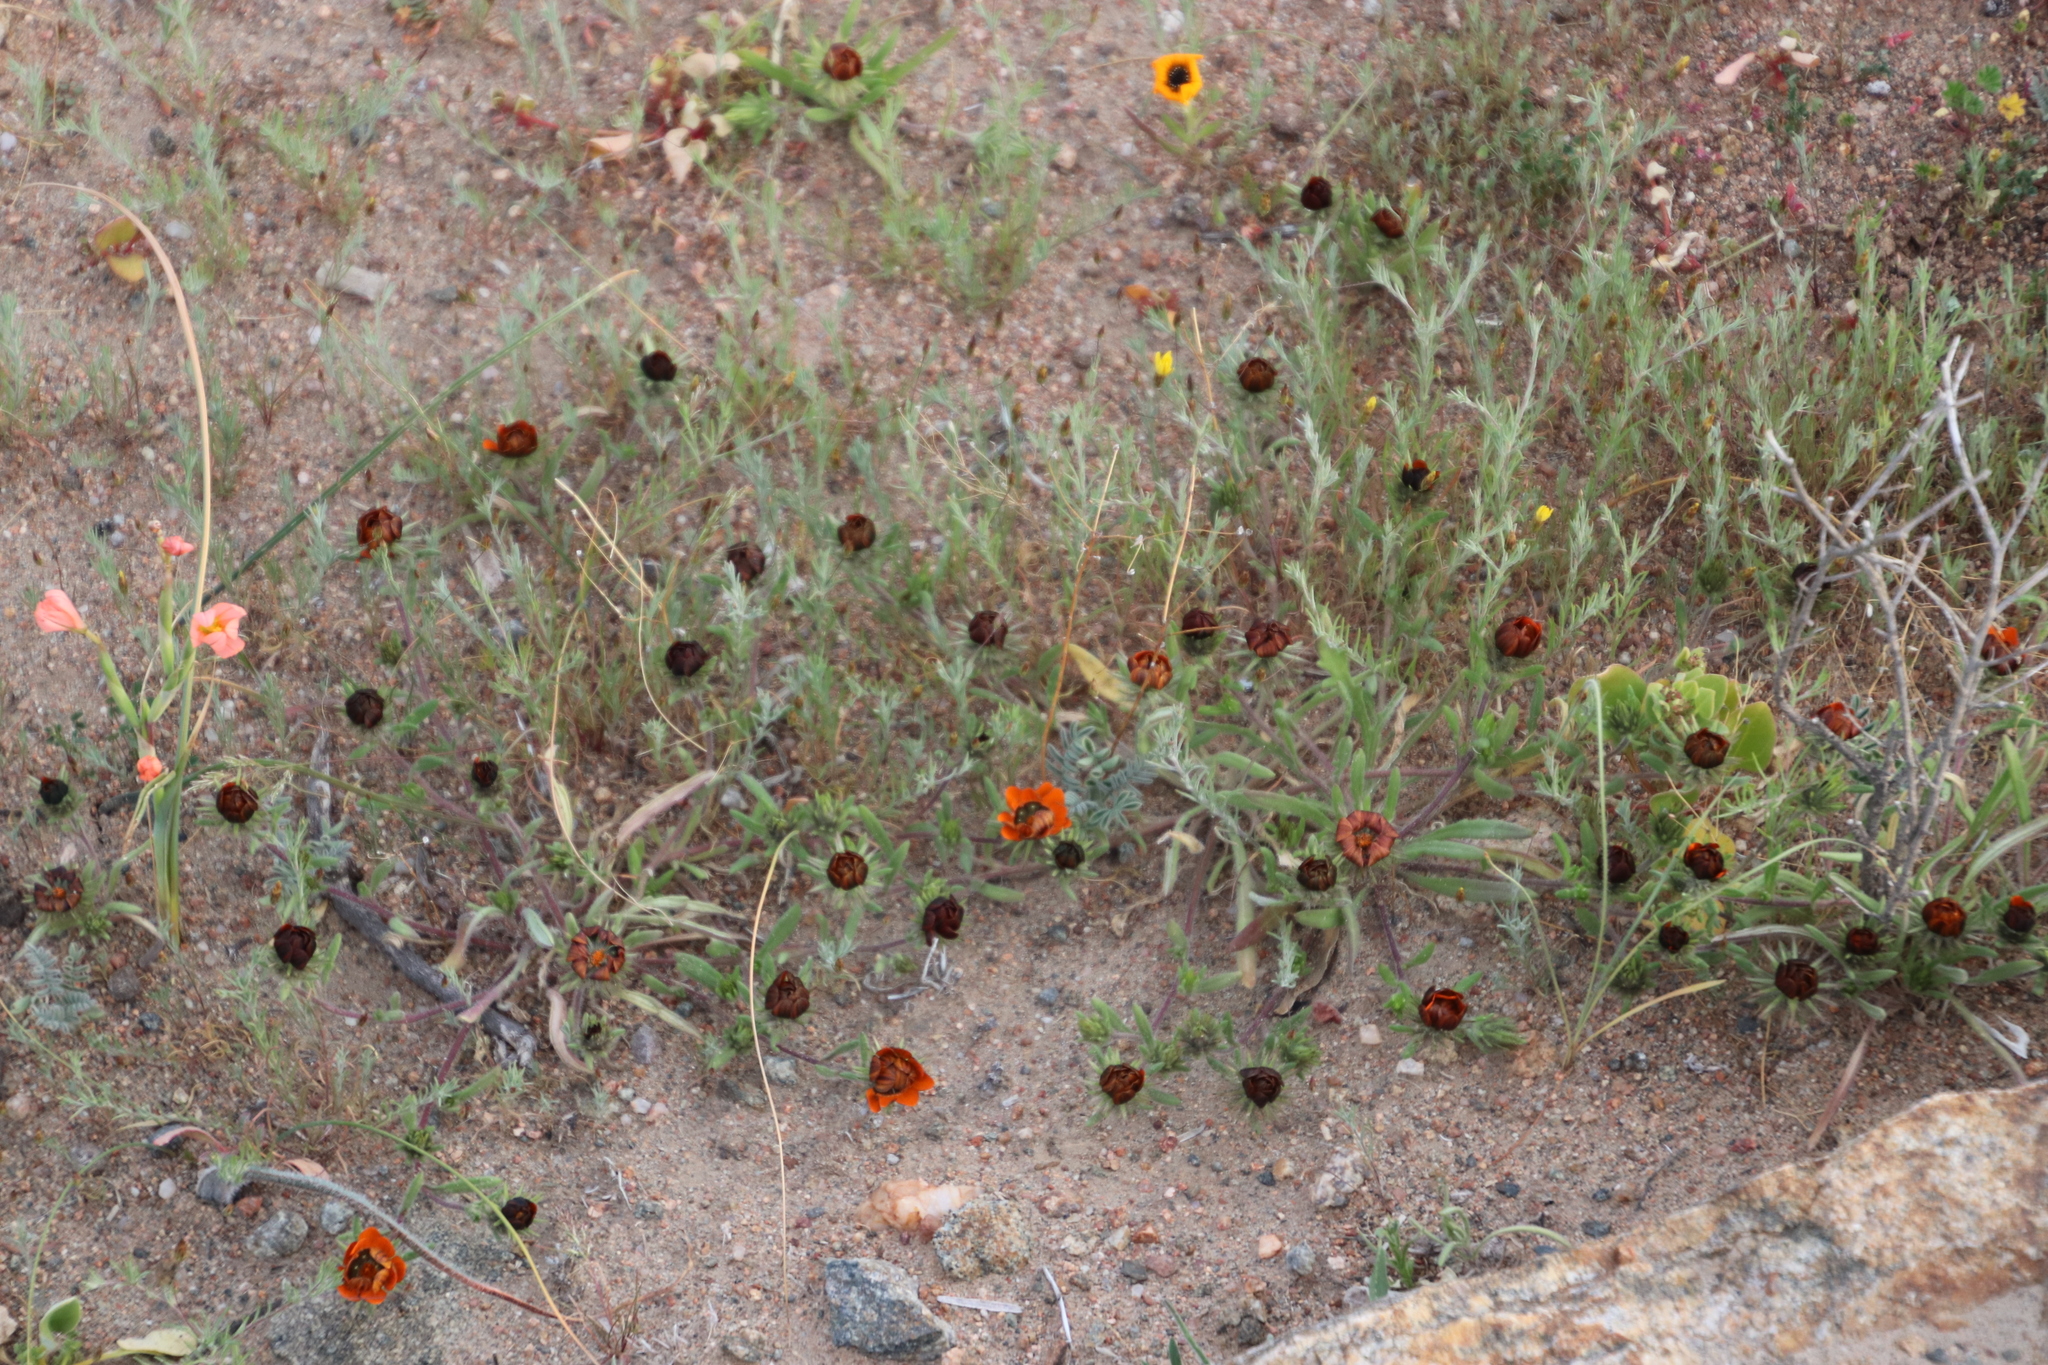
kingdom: Plantae
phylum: Tracheophyta
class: Magnoliopsida
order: Asterales
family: Asteraceae
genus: Gorteria
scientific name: Gorteria diffusa
